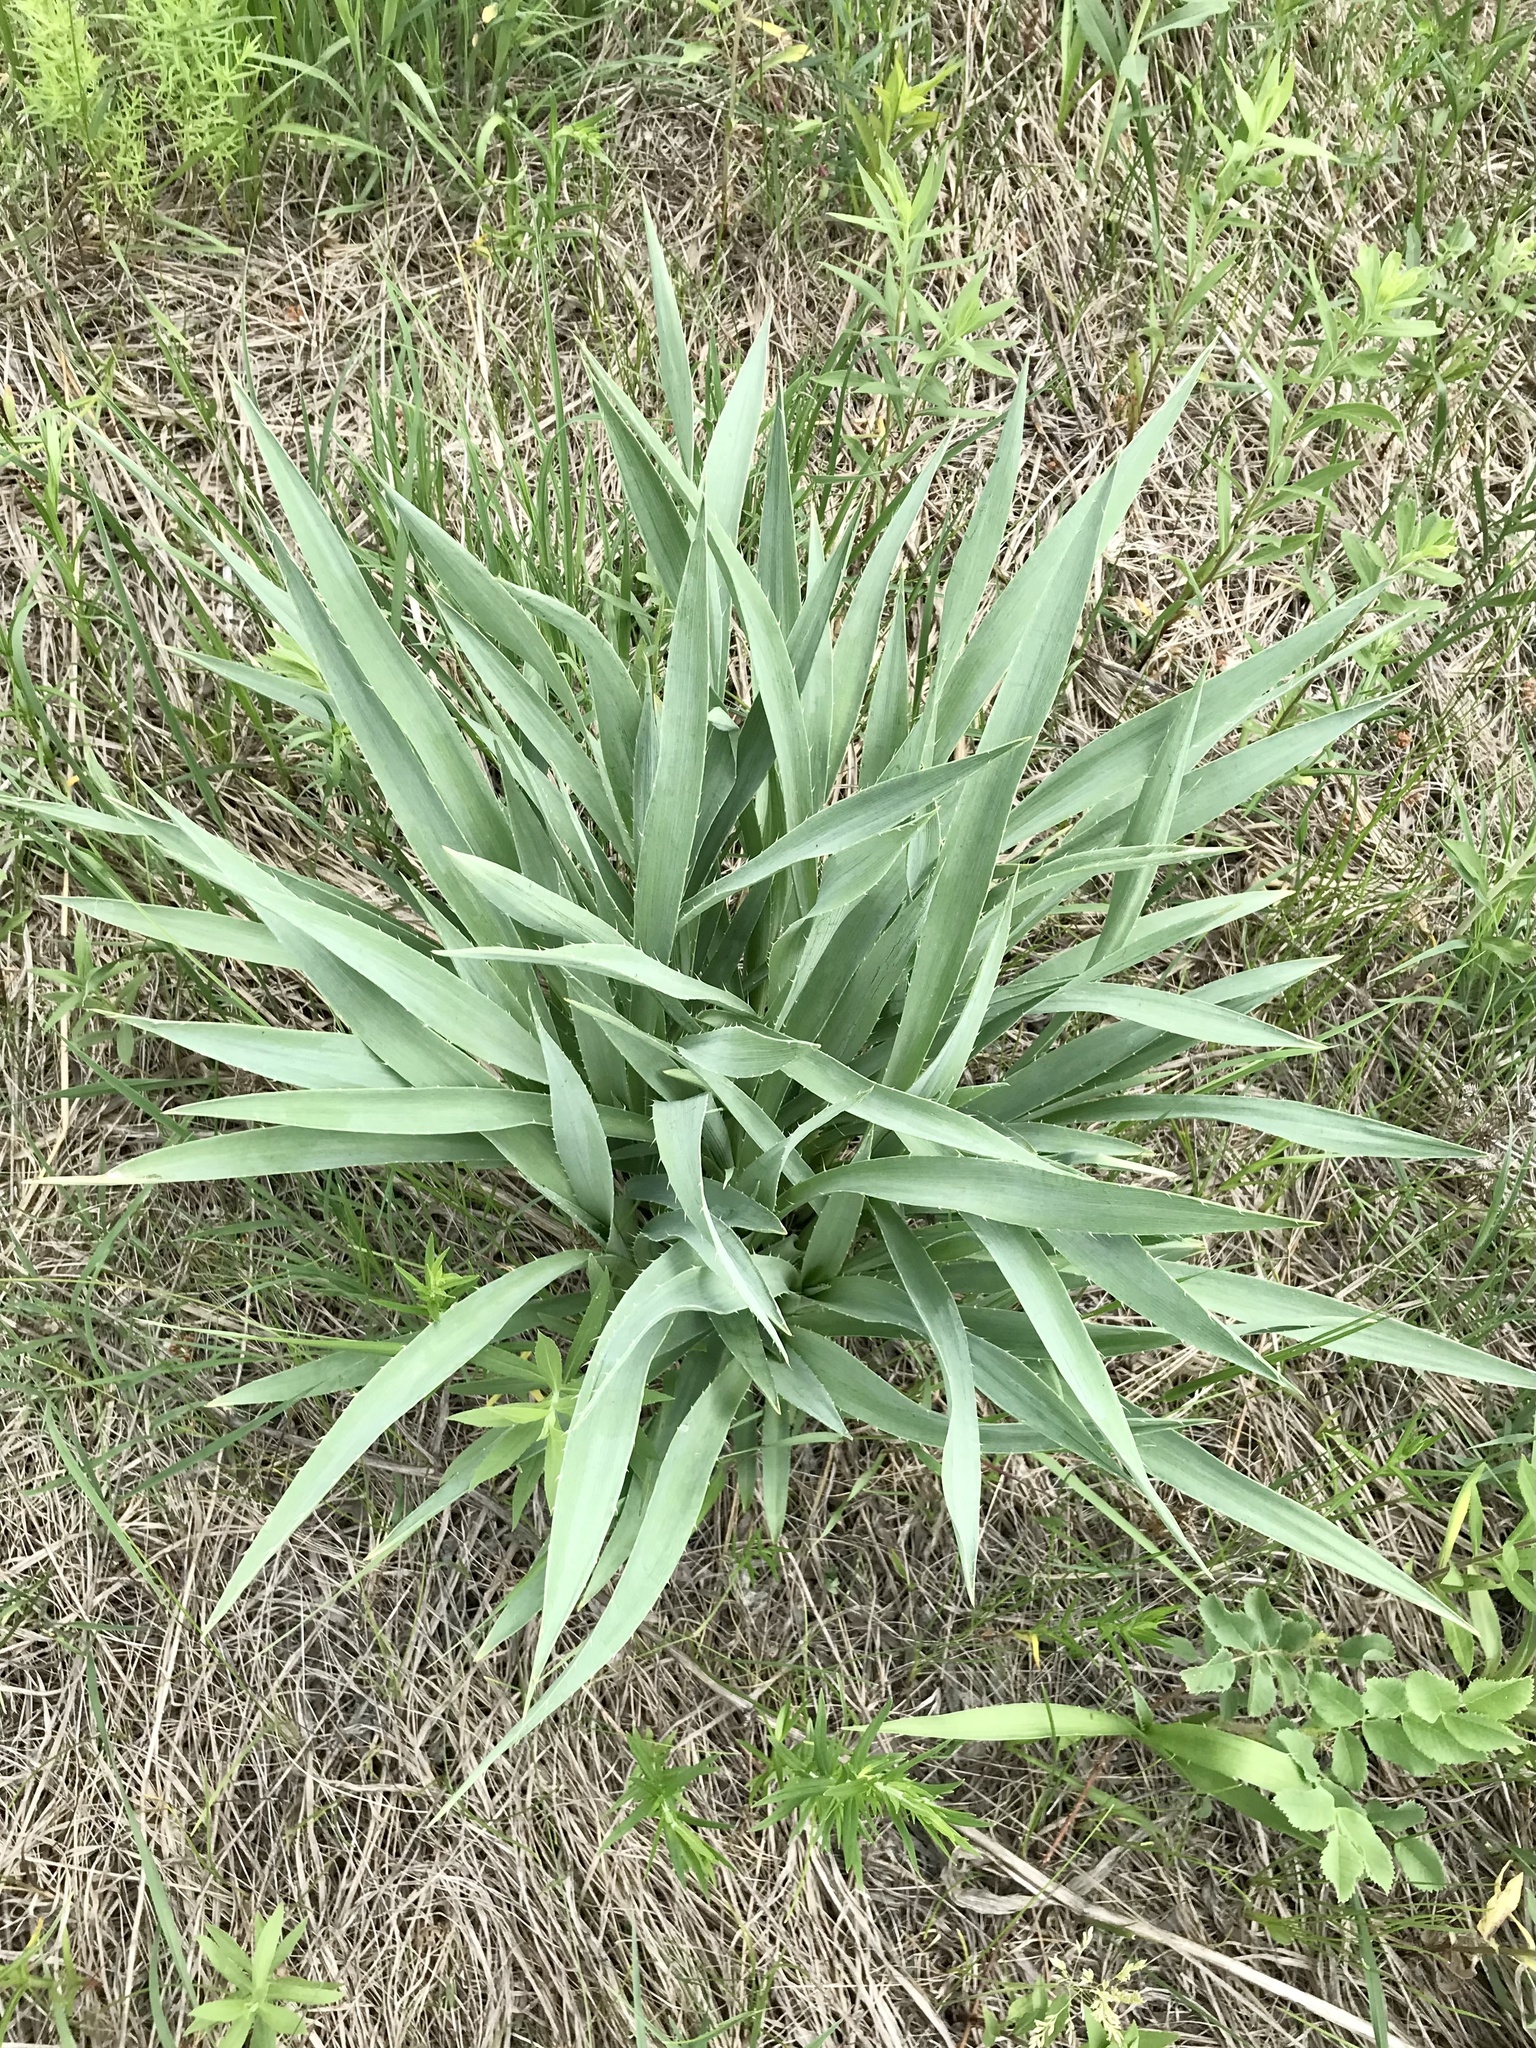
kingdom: Plantae
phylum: Tracheophyta
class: Magnoliopsida
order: Apiales
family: Apiaceae
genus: Eryngium
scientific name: Eryngium yuccifolium
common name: Button eryngo
